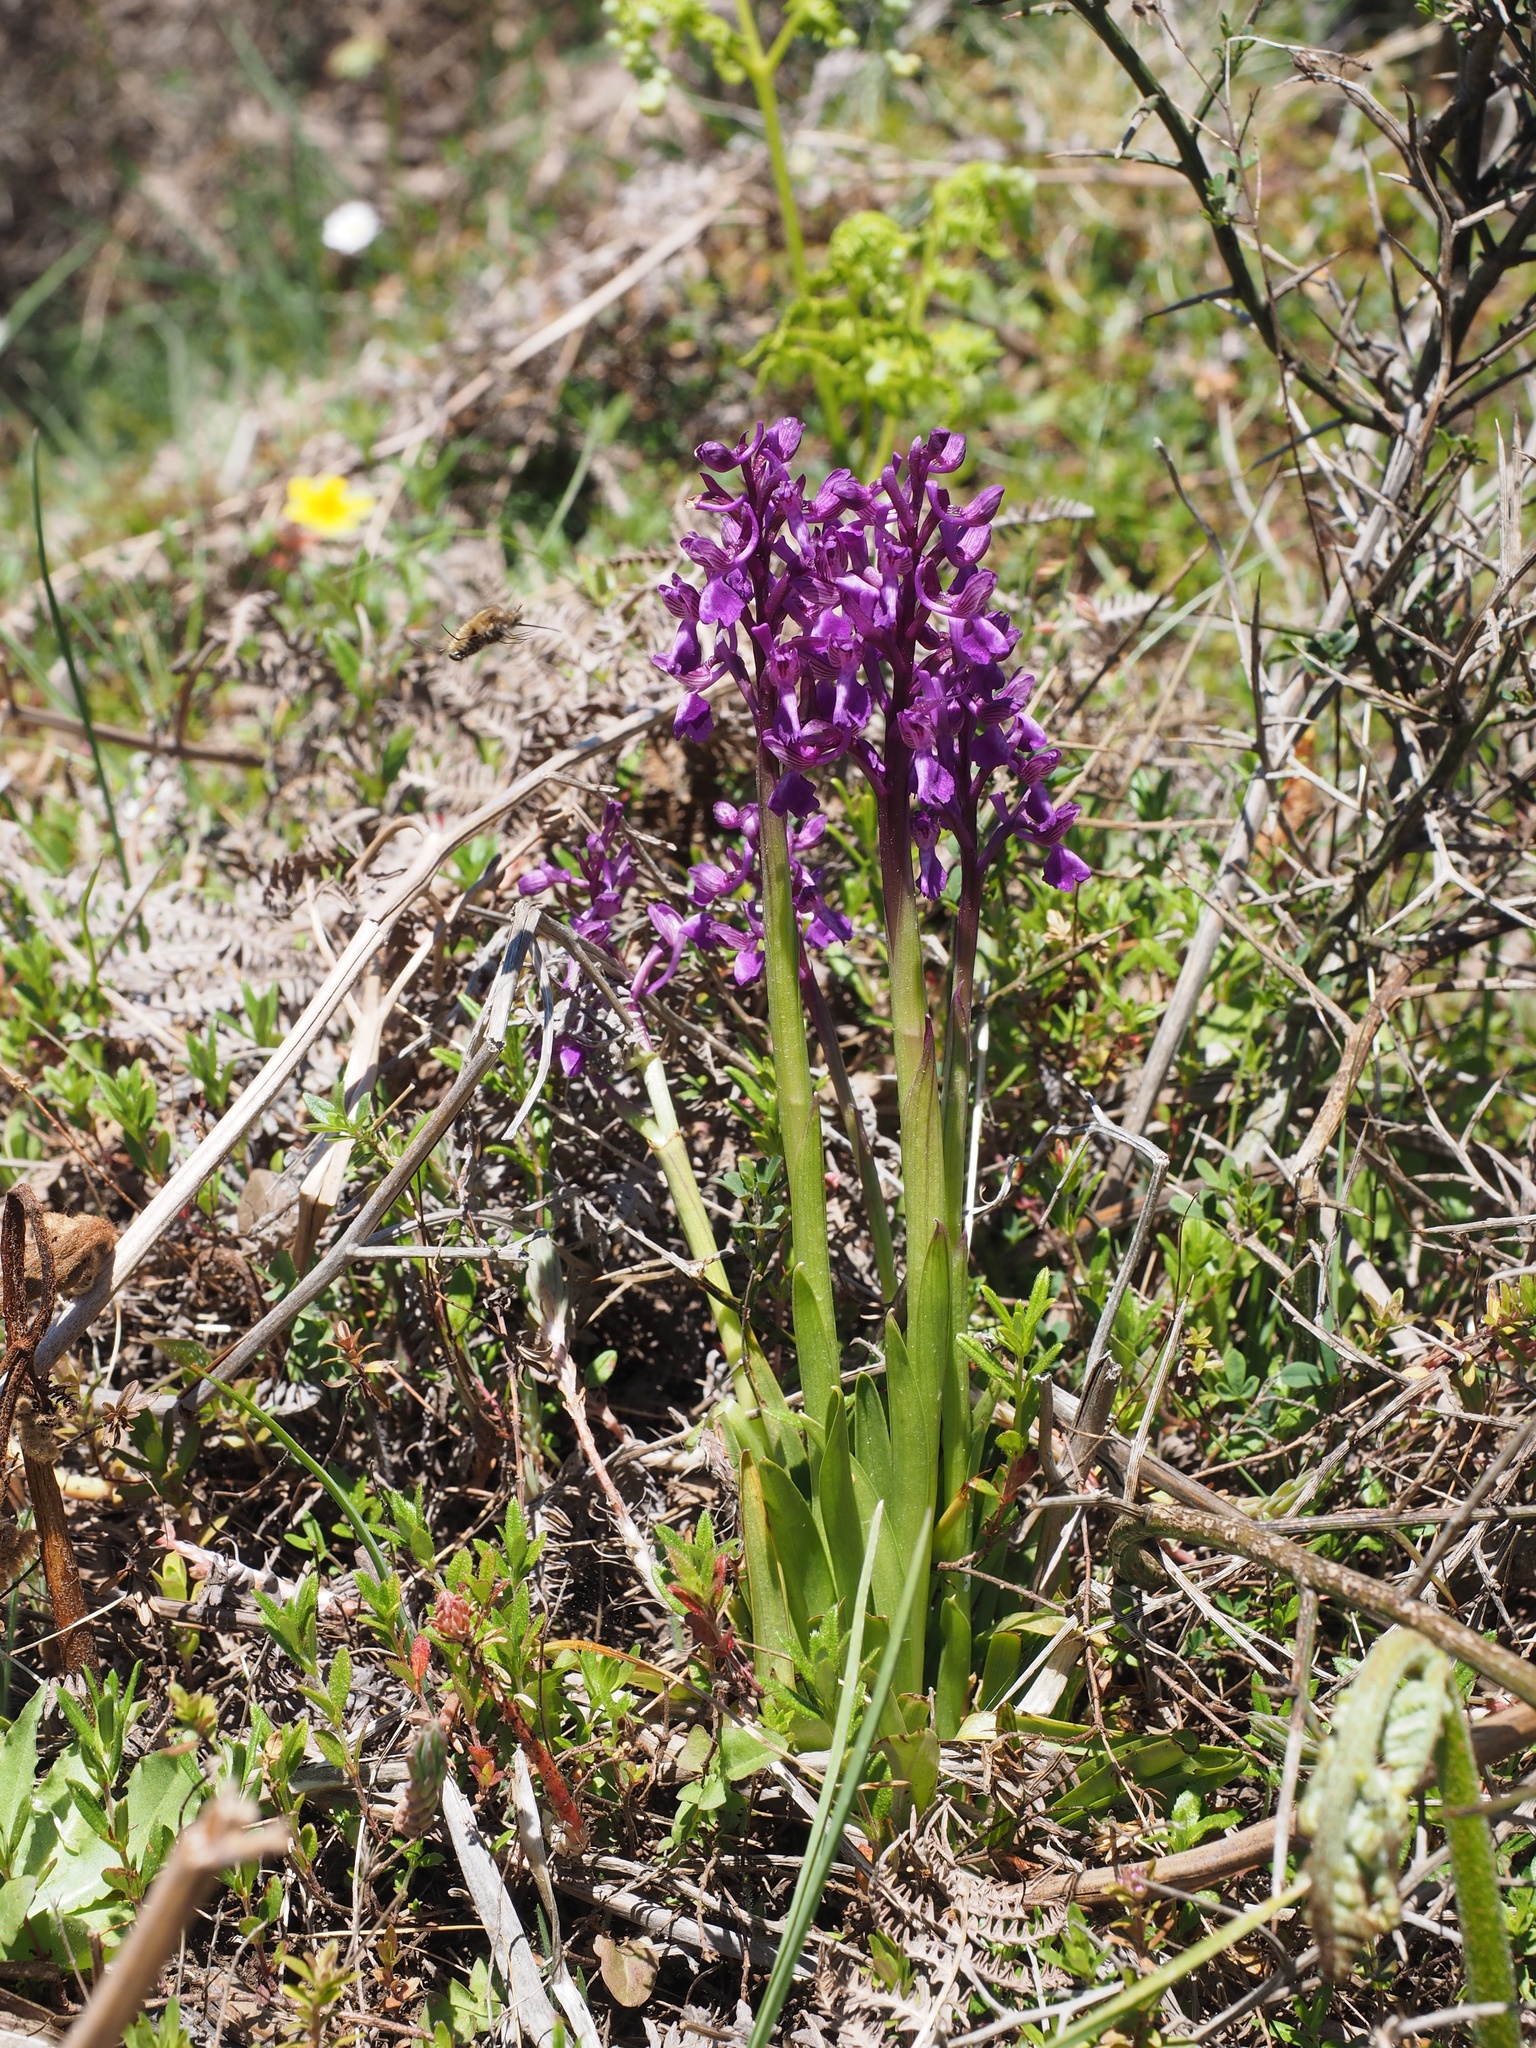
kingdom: Plantae
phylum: Tracheophyta
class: Liliopsida
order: Asparagales
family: Orchidaceae
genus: Anacamptis
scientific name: Anacamptis morio
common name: Green-winged orchid
